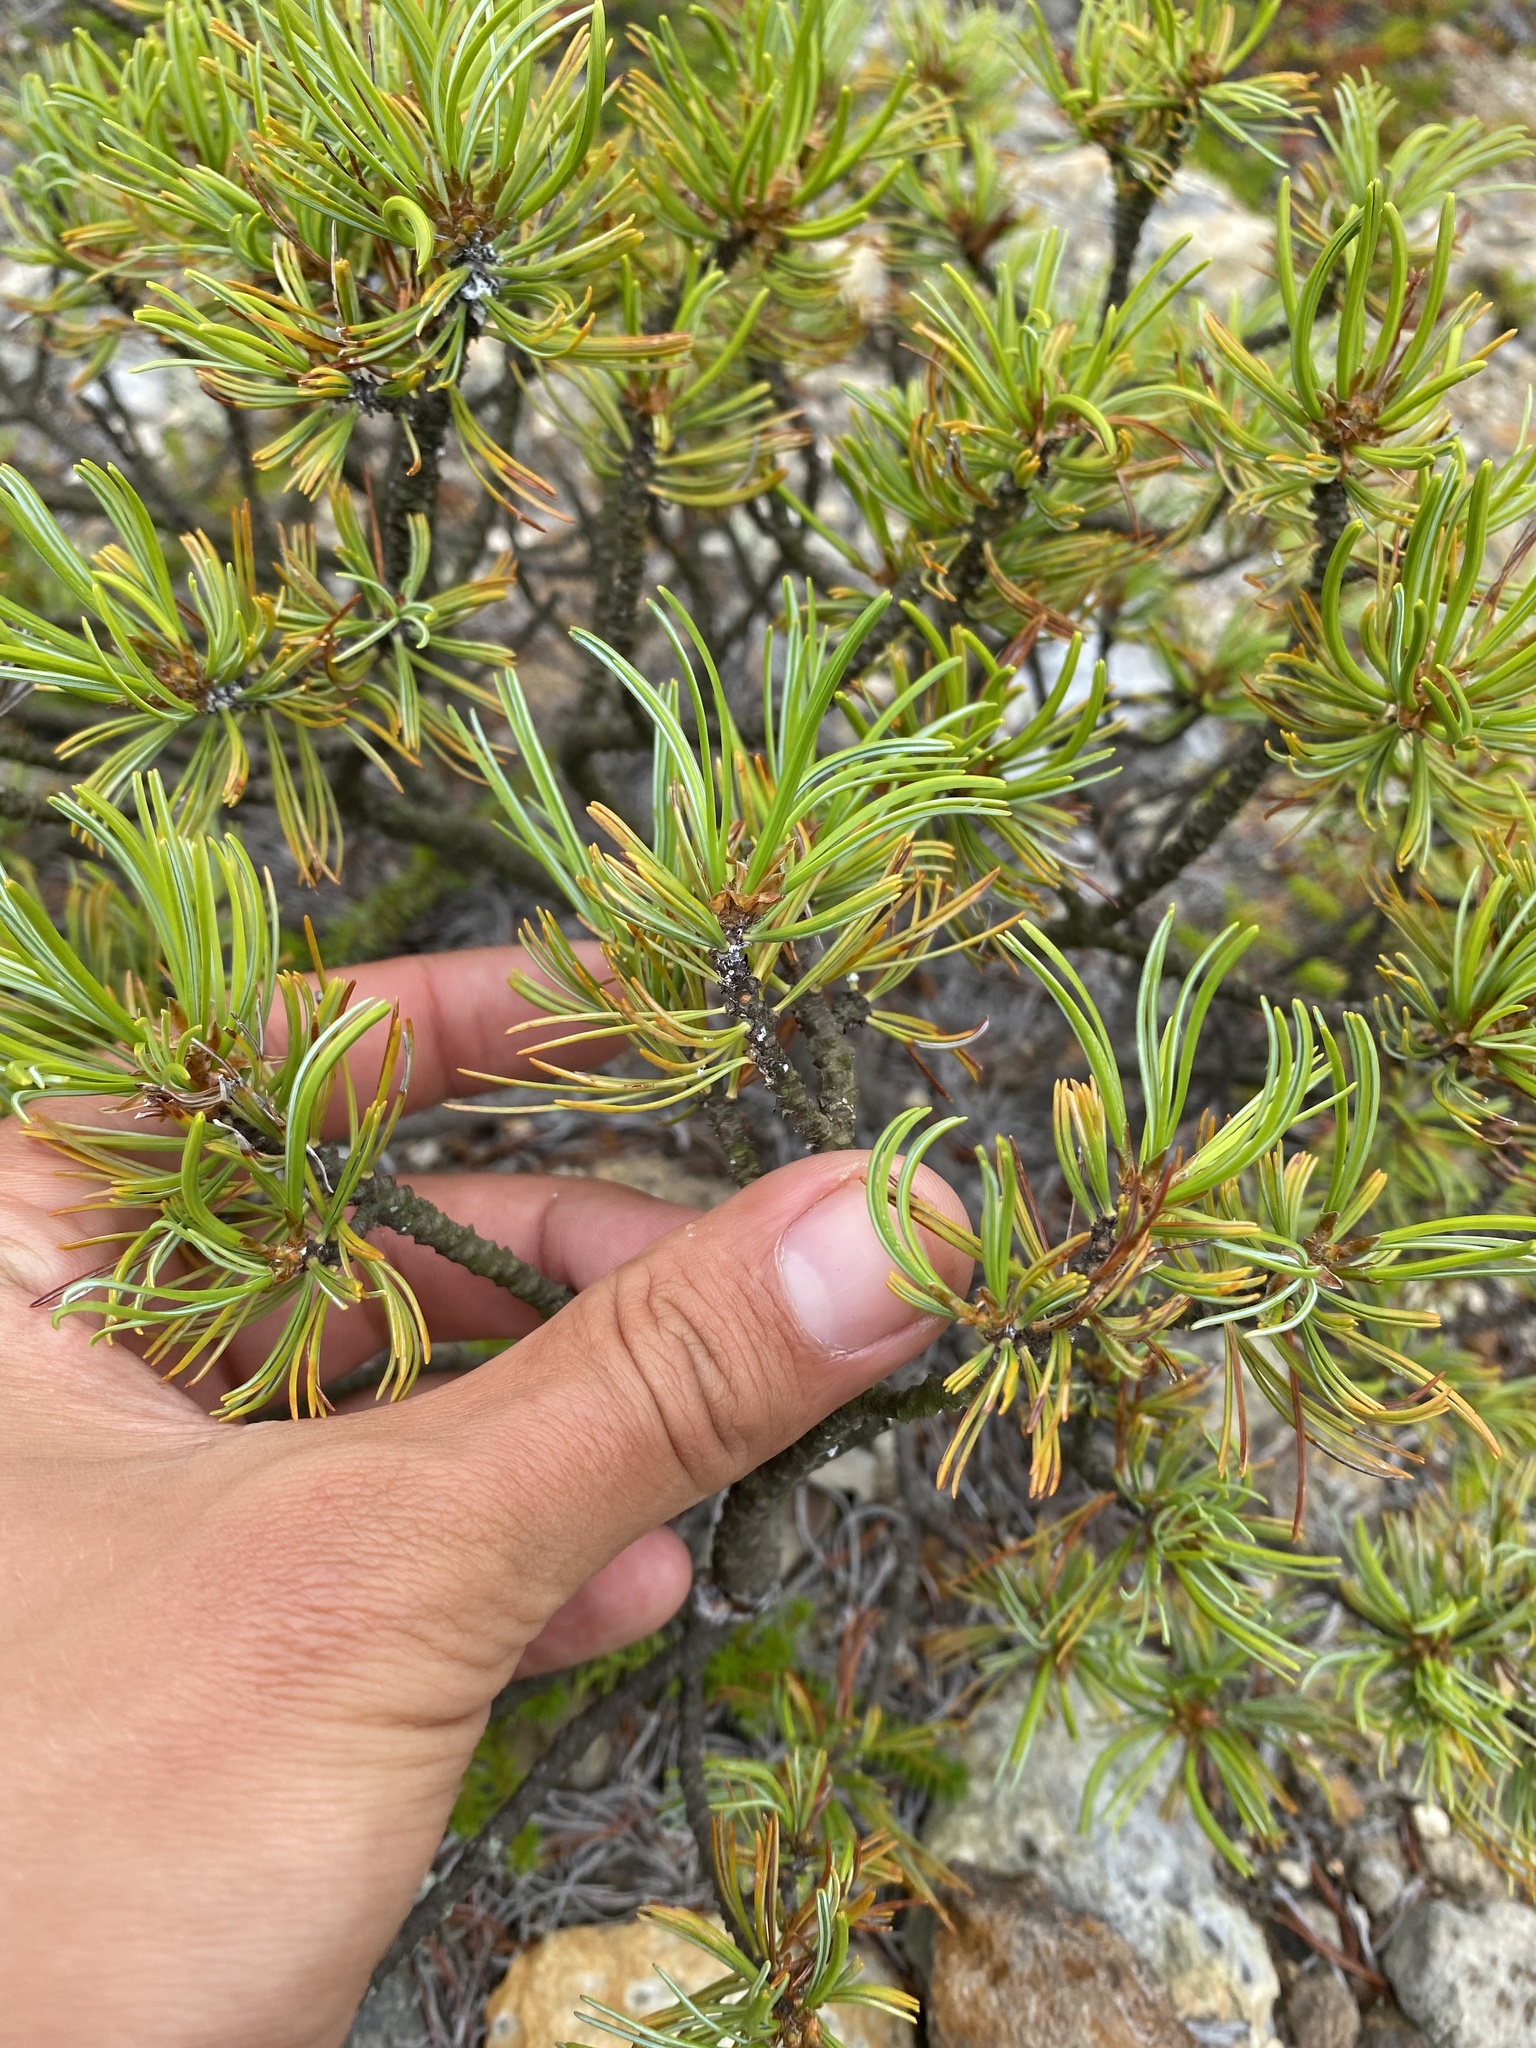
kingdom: Plantae
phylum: Tracheophyta
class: Pinopsida
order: Pinales
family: Pinaceae
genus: Pinus
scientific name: Pinus pumila
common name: Dwarf siberian pine
